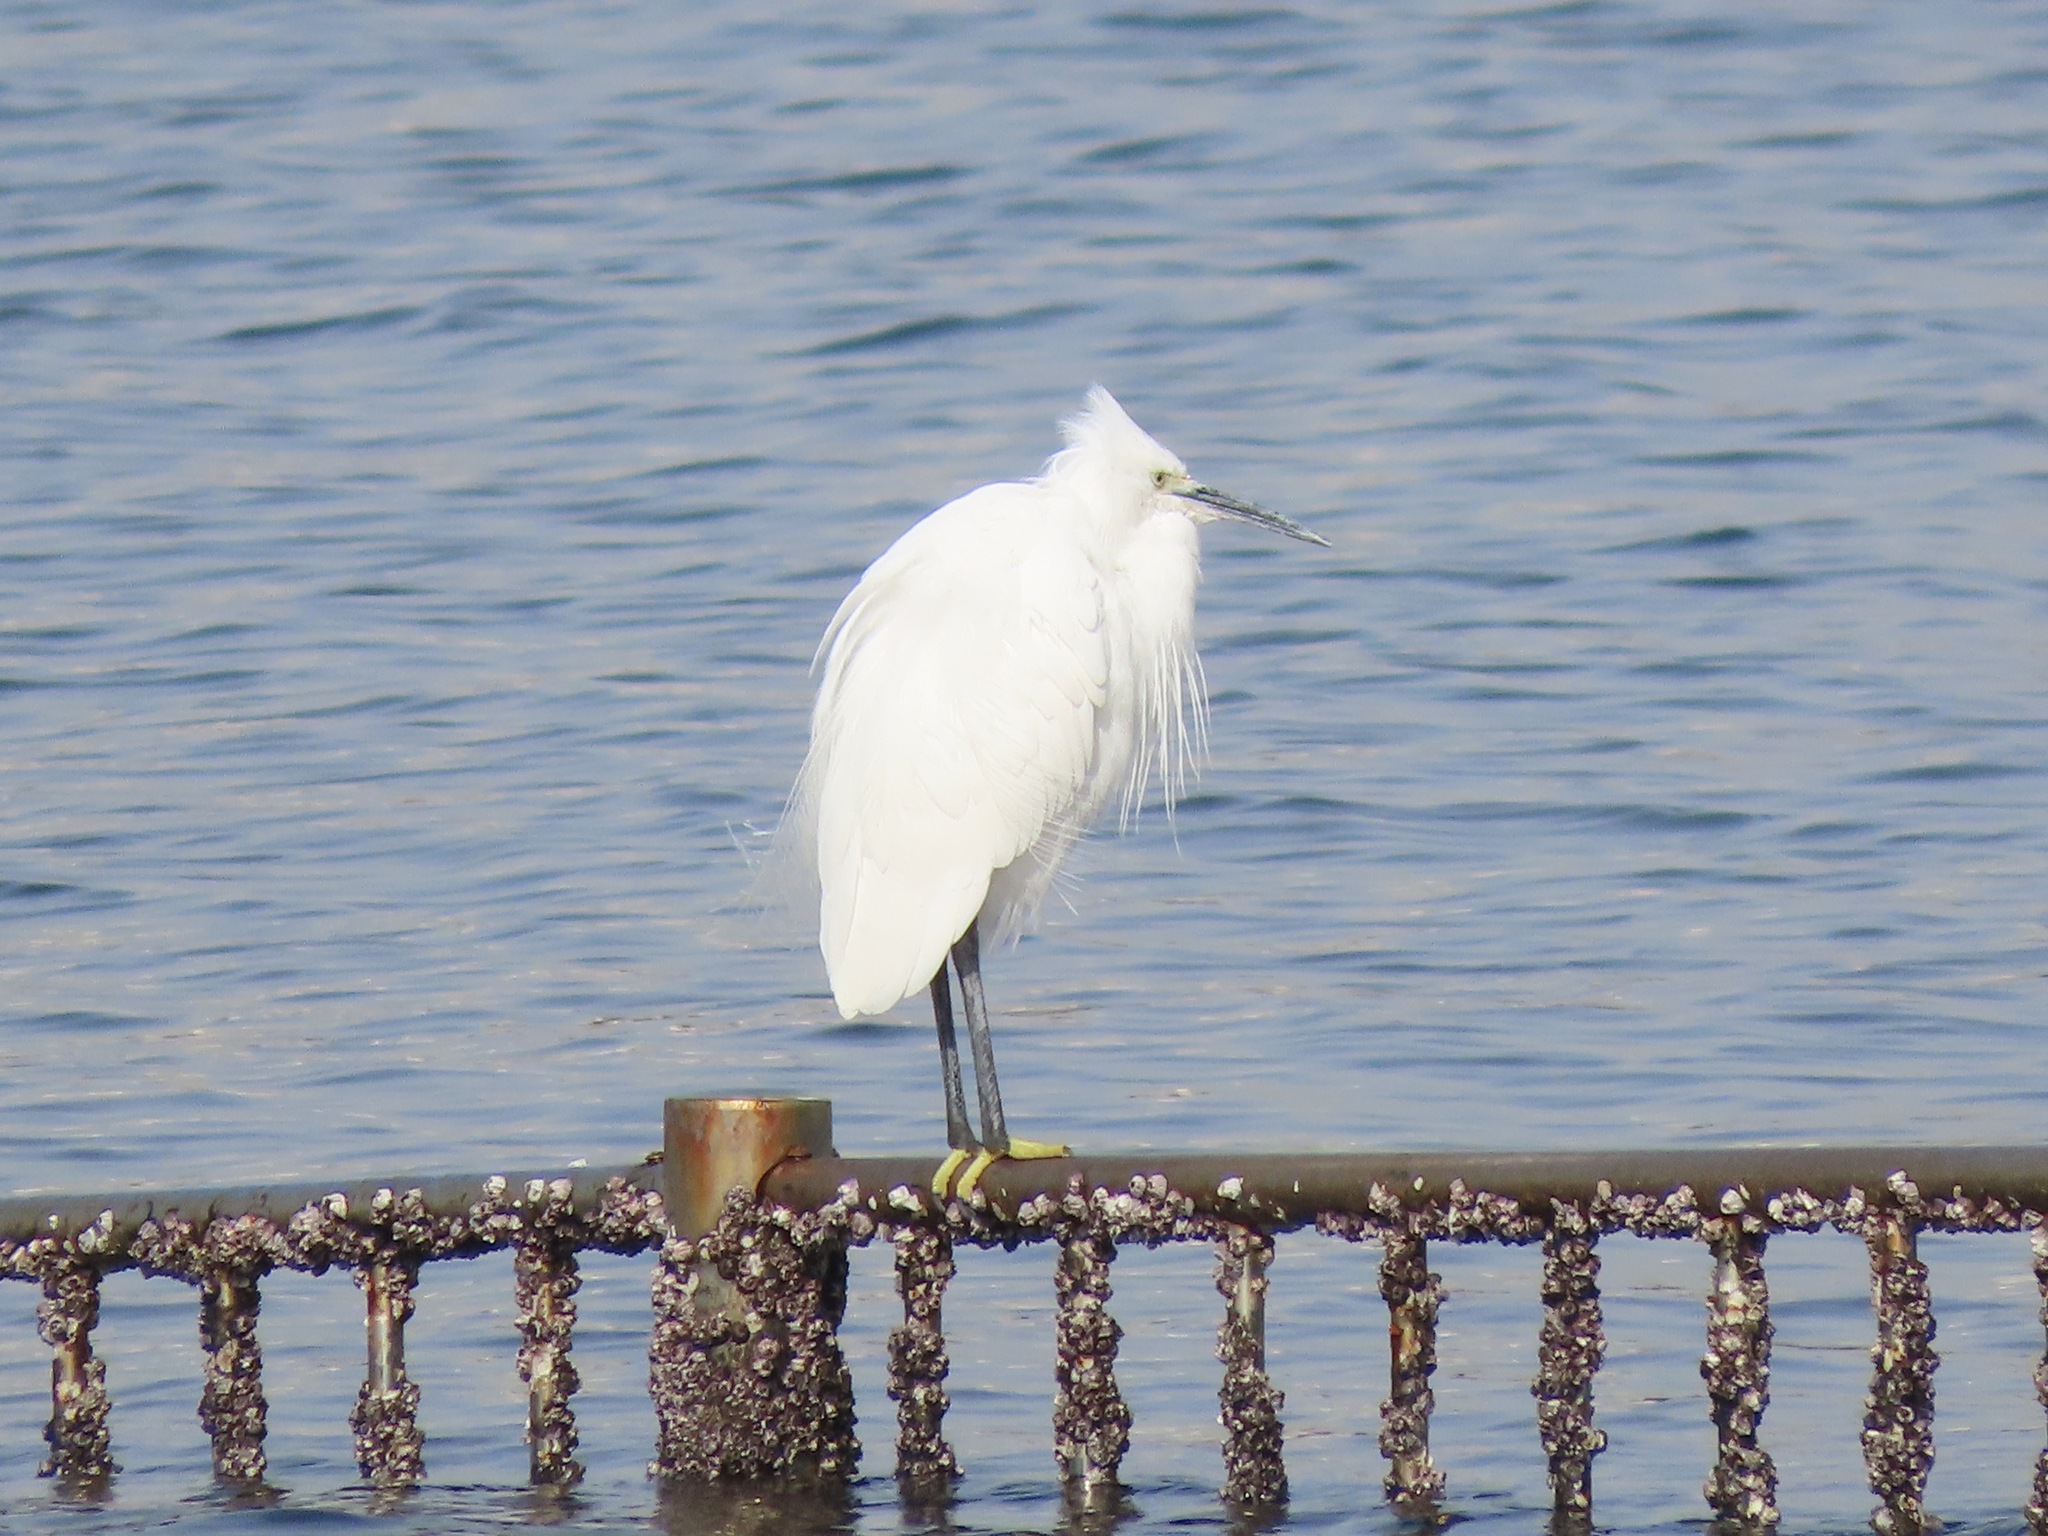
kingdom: Animalia
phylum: Chordata
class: Aves
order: Pelecaniformes
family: Ardeidae
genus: Egretta
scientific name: Egretta garzetta
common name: Little egret
